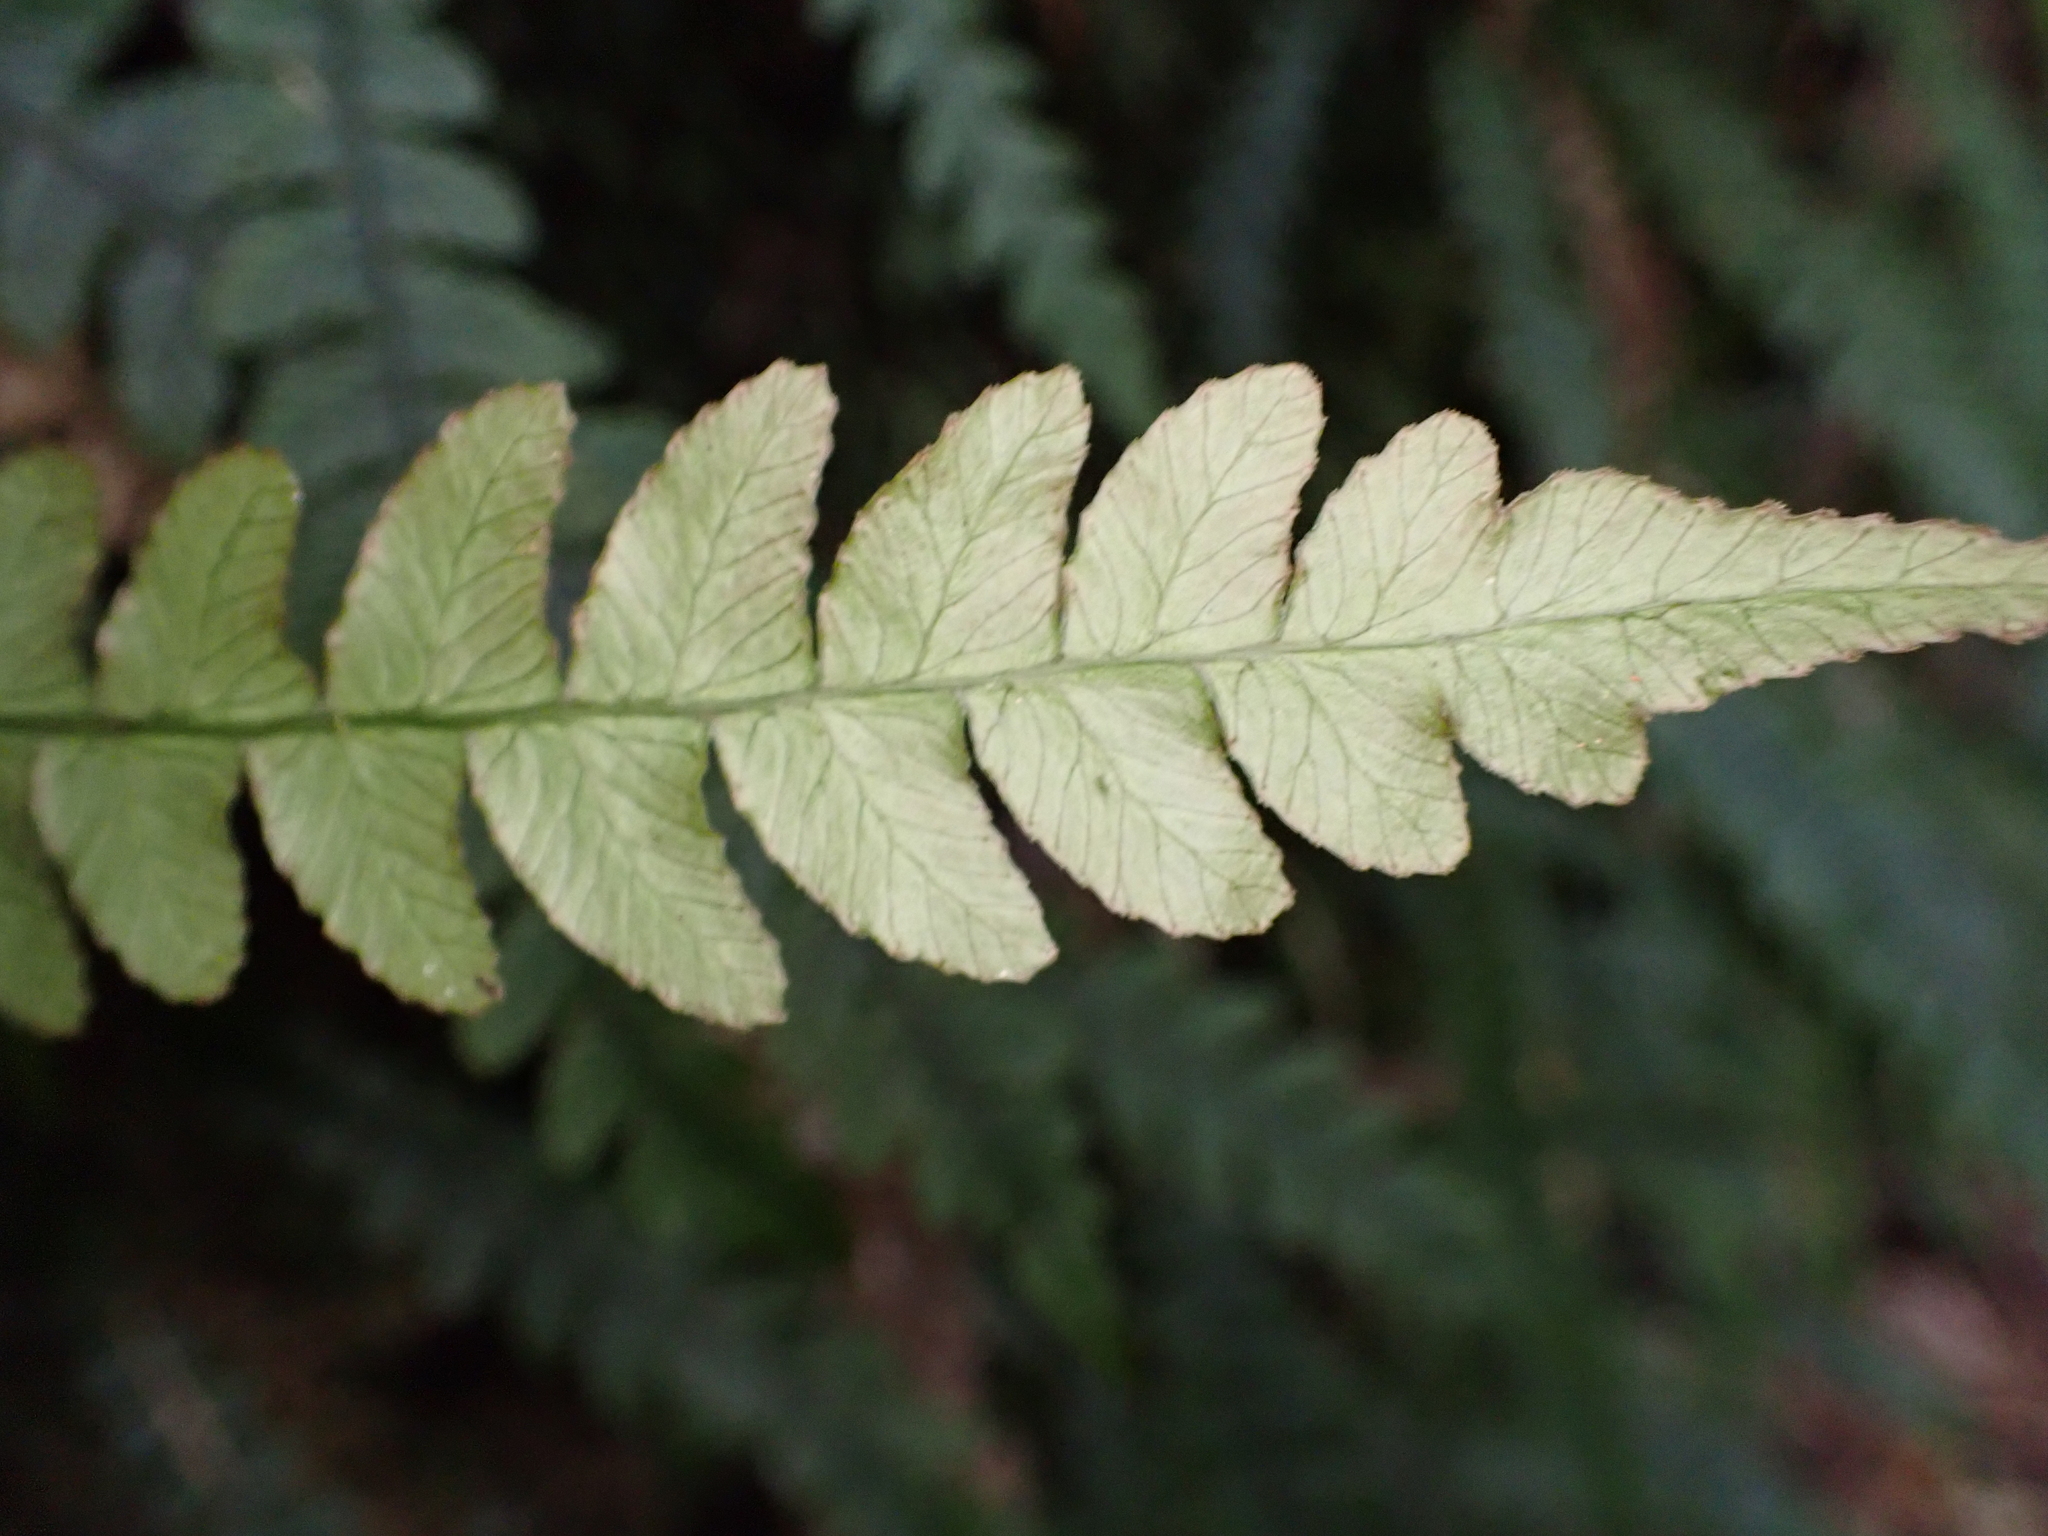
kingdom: Plantae
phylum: Tracheophyta
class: Polypodiopsida
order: Polypodiales
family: Blechnaceae
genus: Austroblechnum
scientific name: Austroblechnum lanceolatum
